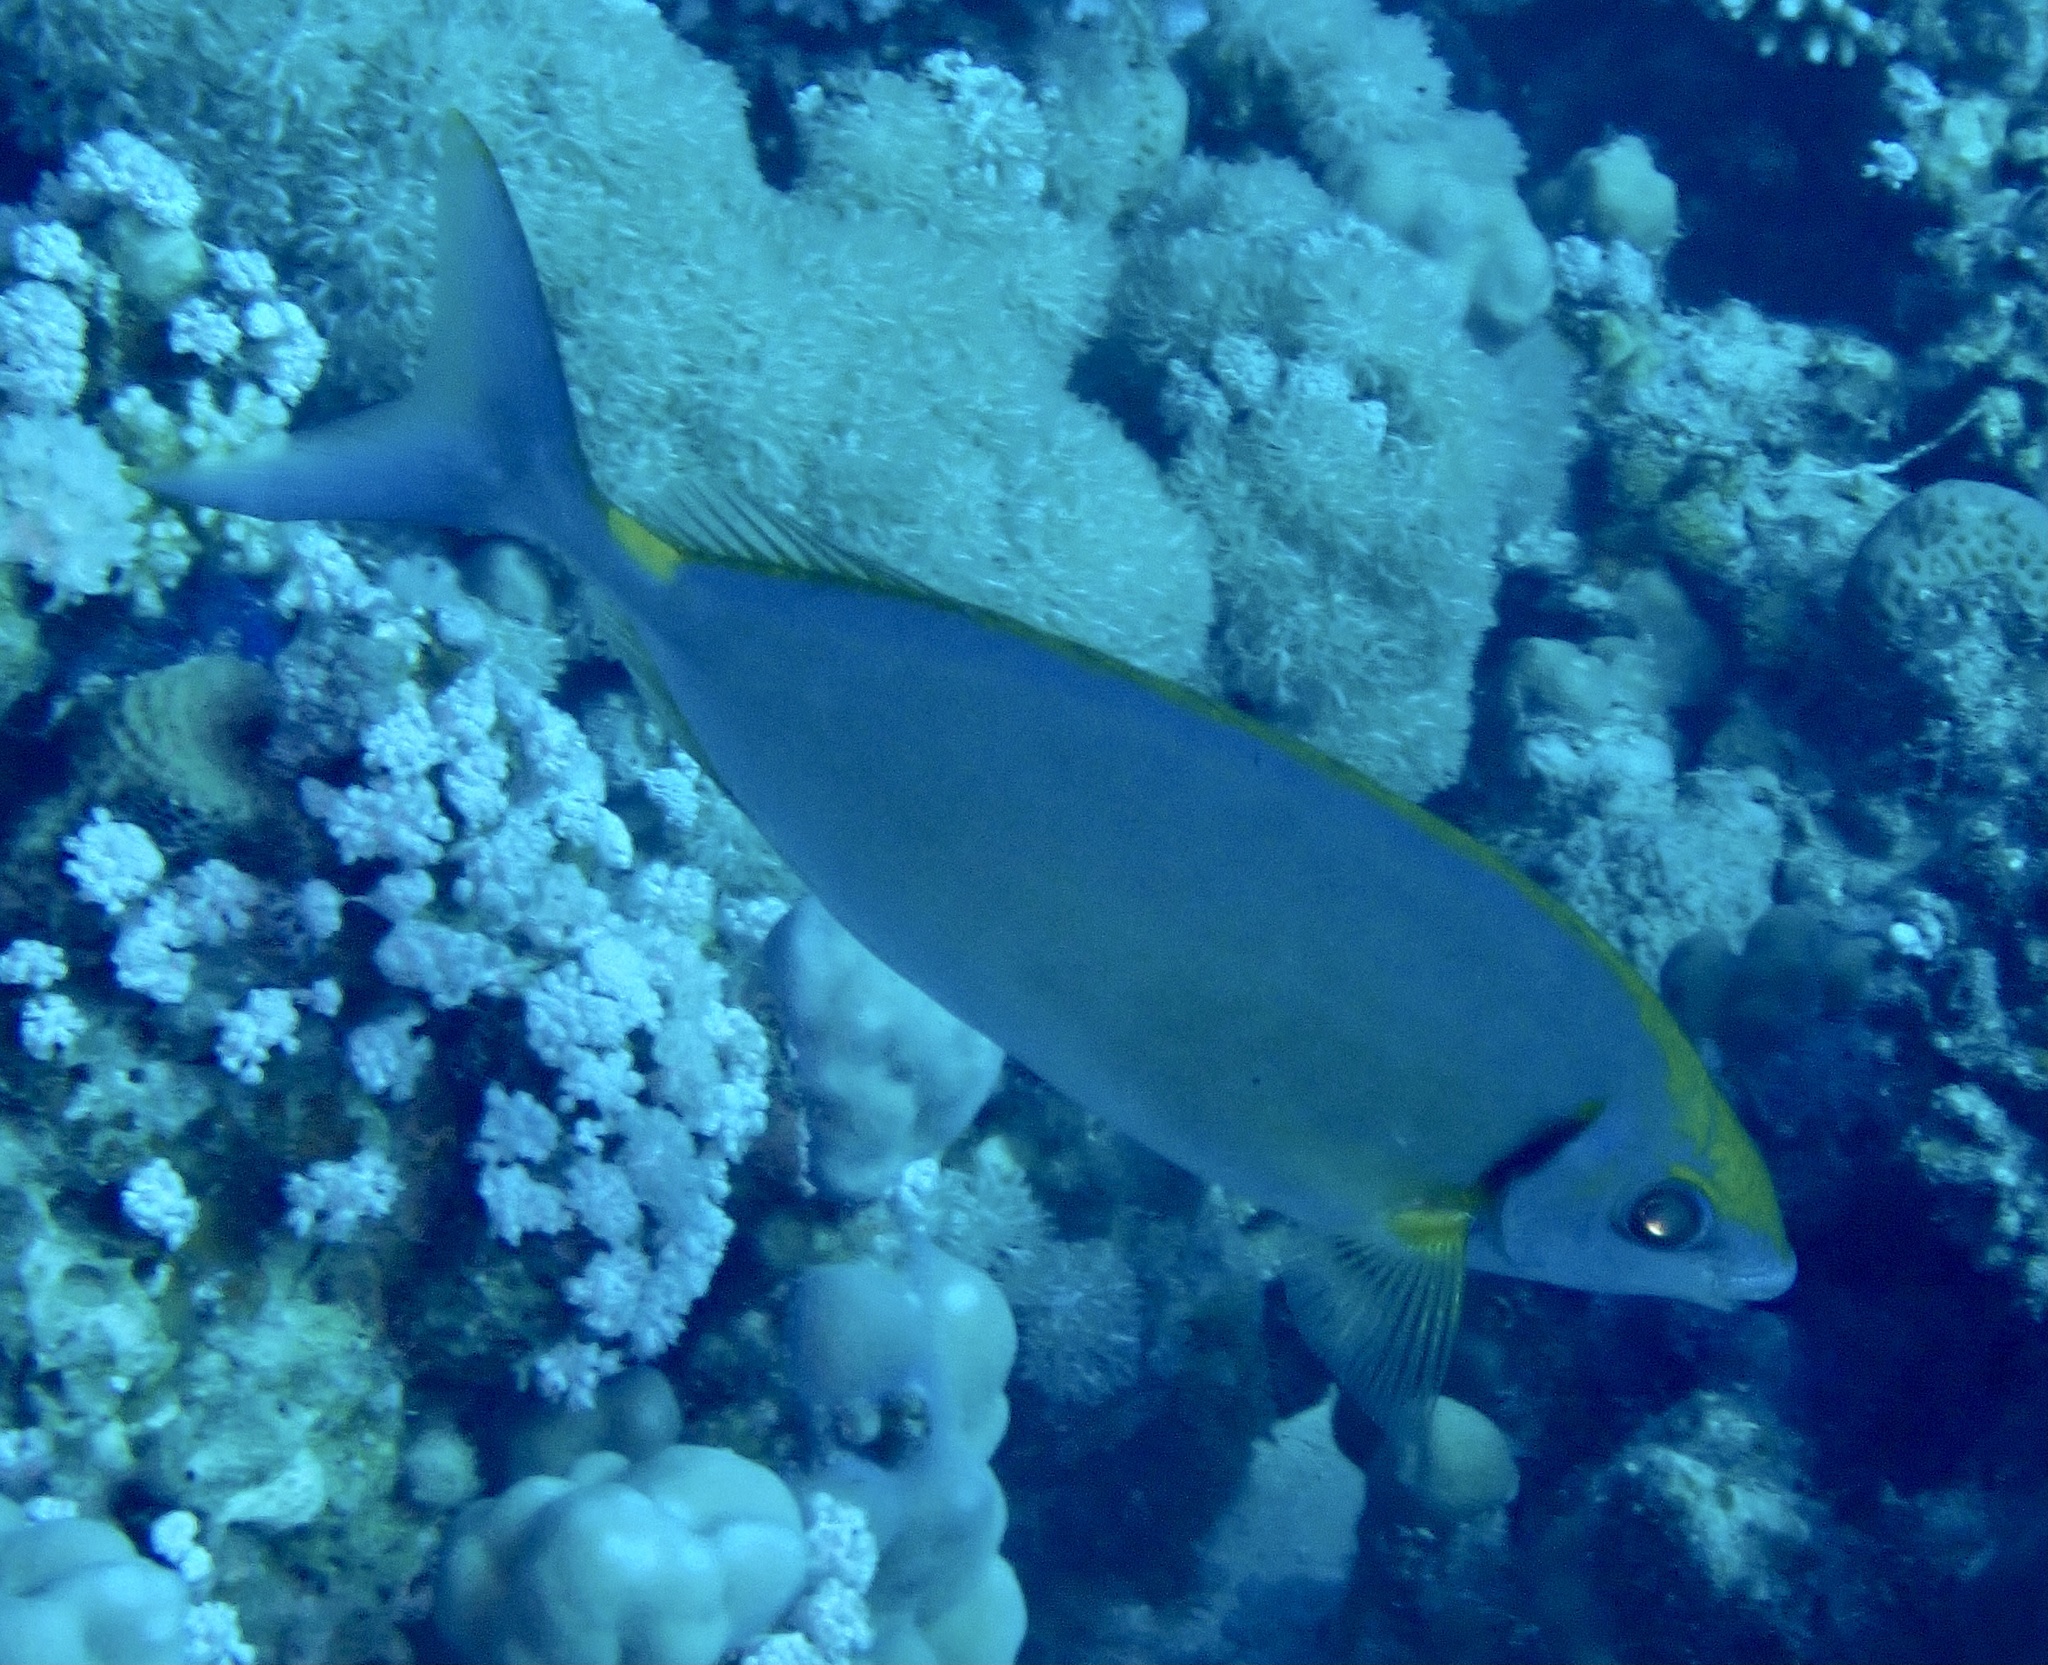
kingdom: Animalia
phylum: Chordata
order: Perciformes
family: Siganidae
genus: Siganus
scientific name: Siganus argenteus
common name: Forktail rabbitfish
